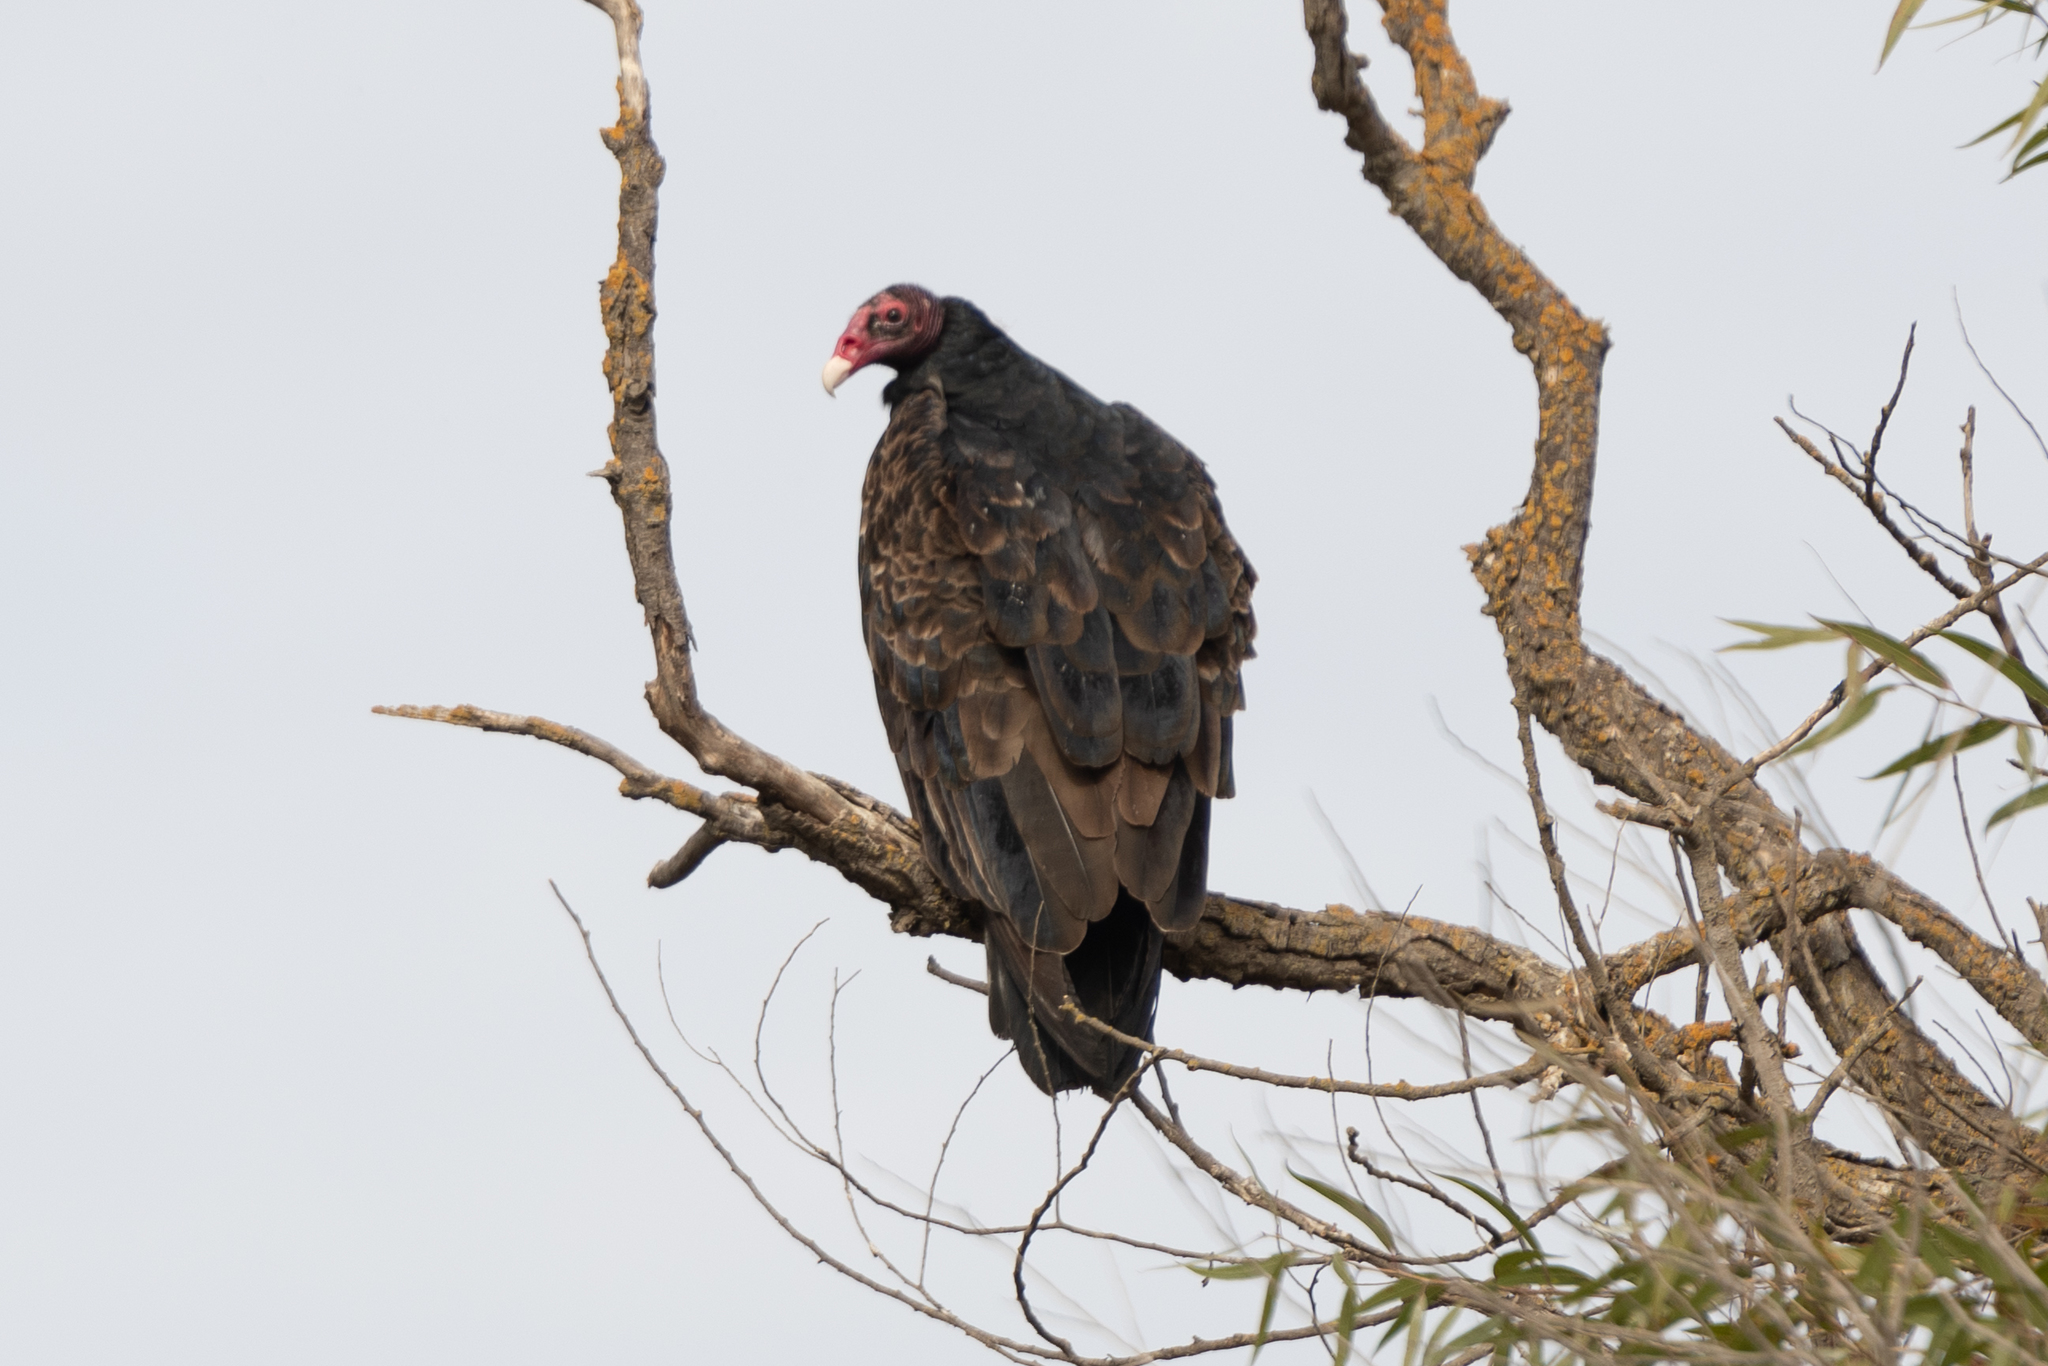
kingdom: Animalia
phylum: Chordata
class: Aves
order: Accipitriformes
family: Cathartidae
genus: Cathartes
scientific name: Cathartes aura
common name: Turkey vulture
